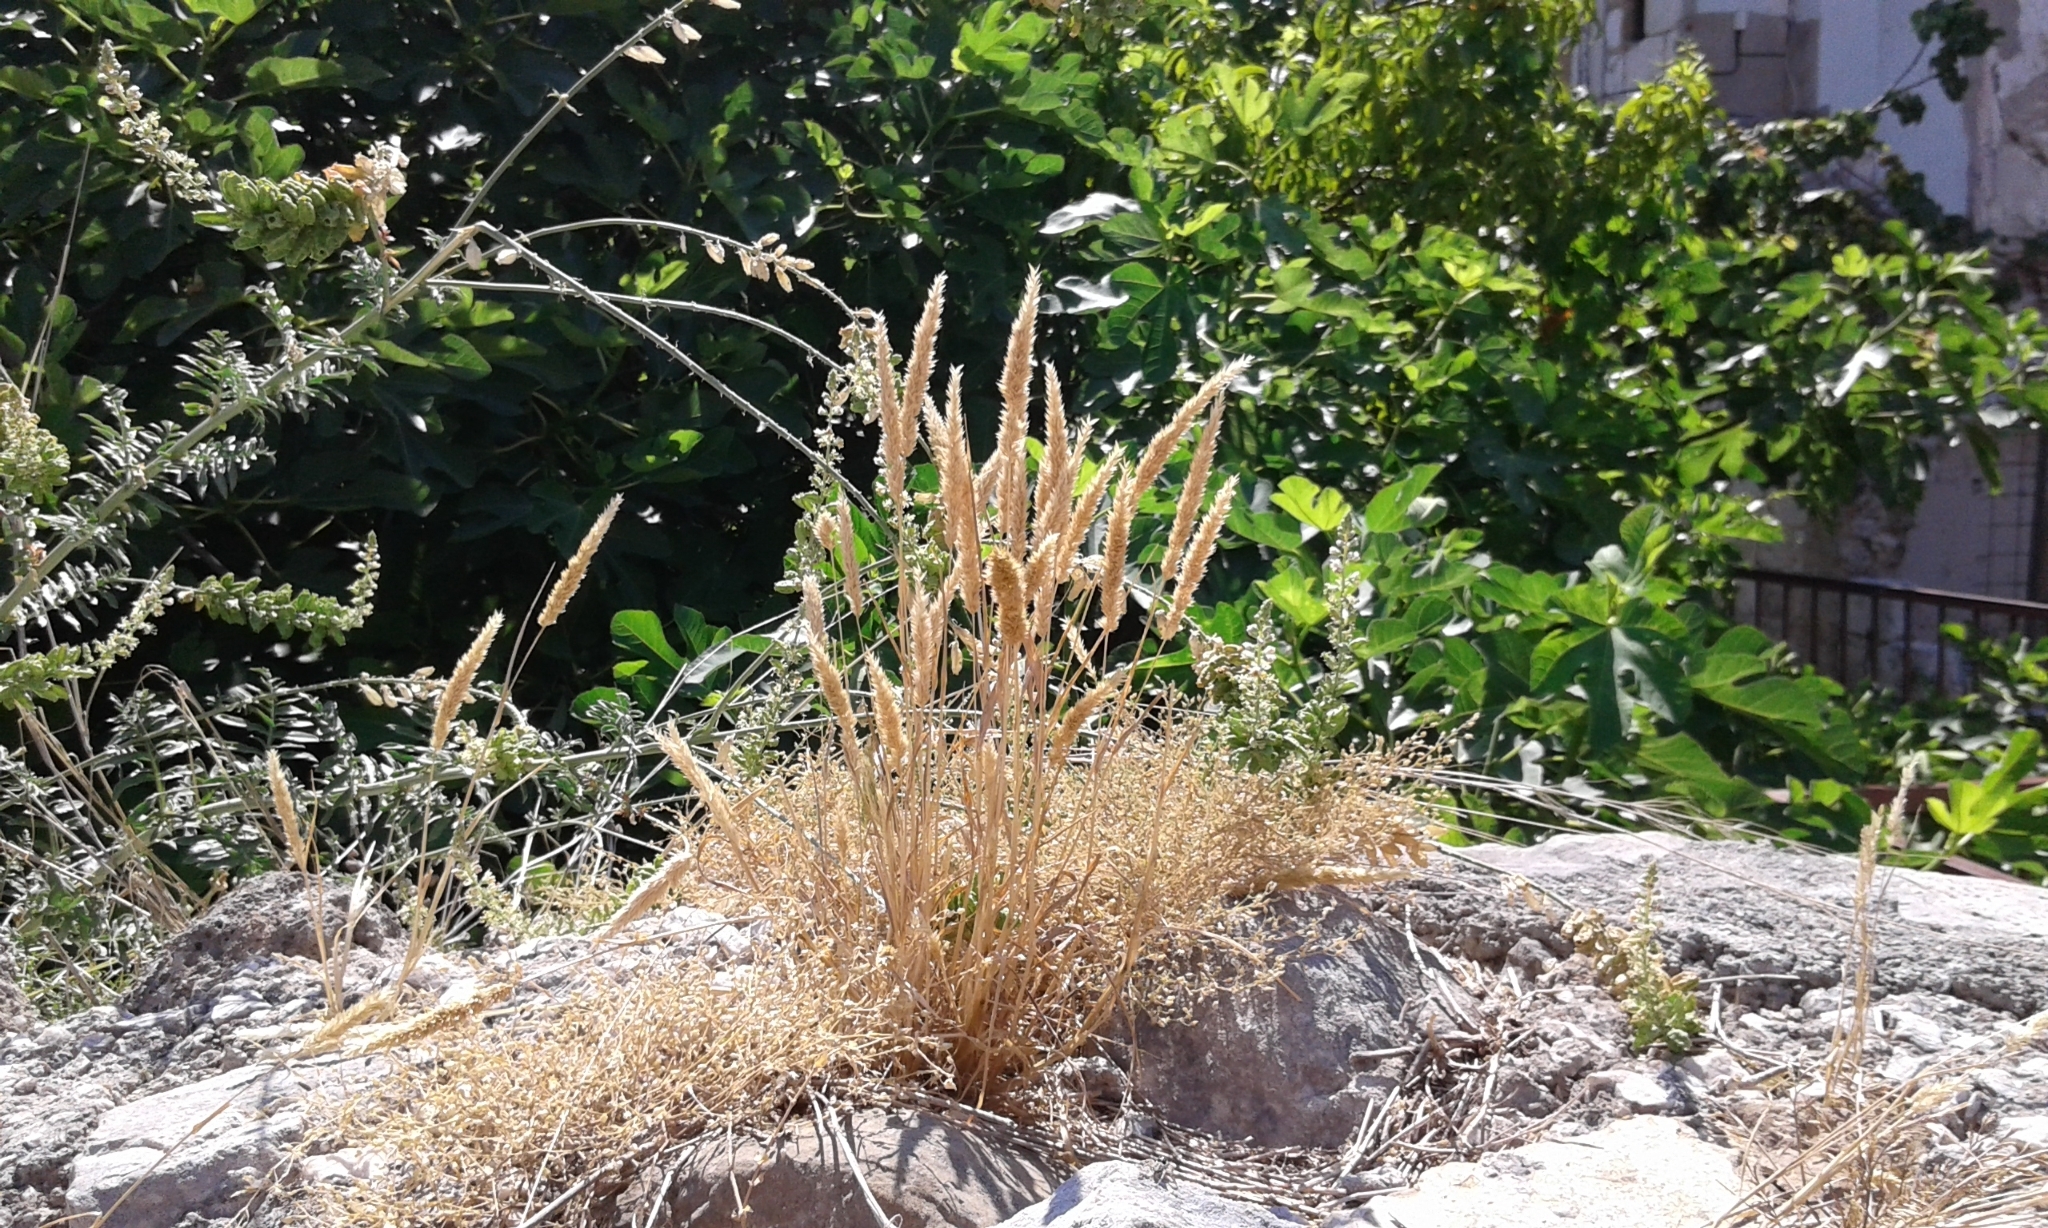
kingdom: Plantae
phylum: Tracheophyta
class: Liliopsida
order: Poales
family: Poaceae
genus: Rostraria
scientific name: Rostraria cristata
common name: Mediterranean hair-grass
